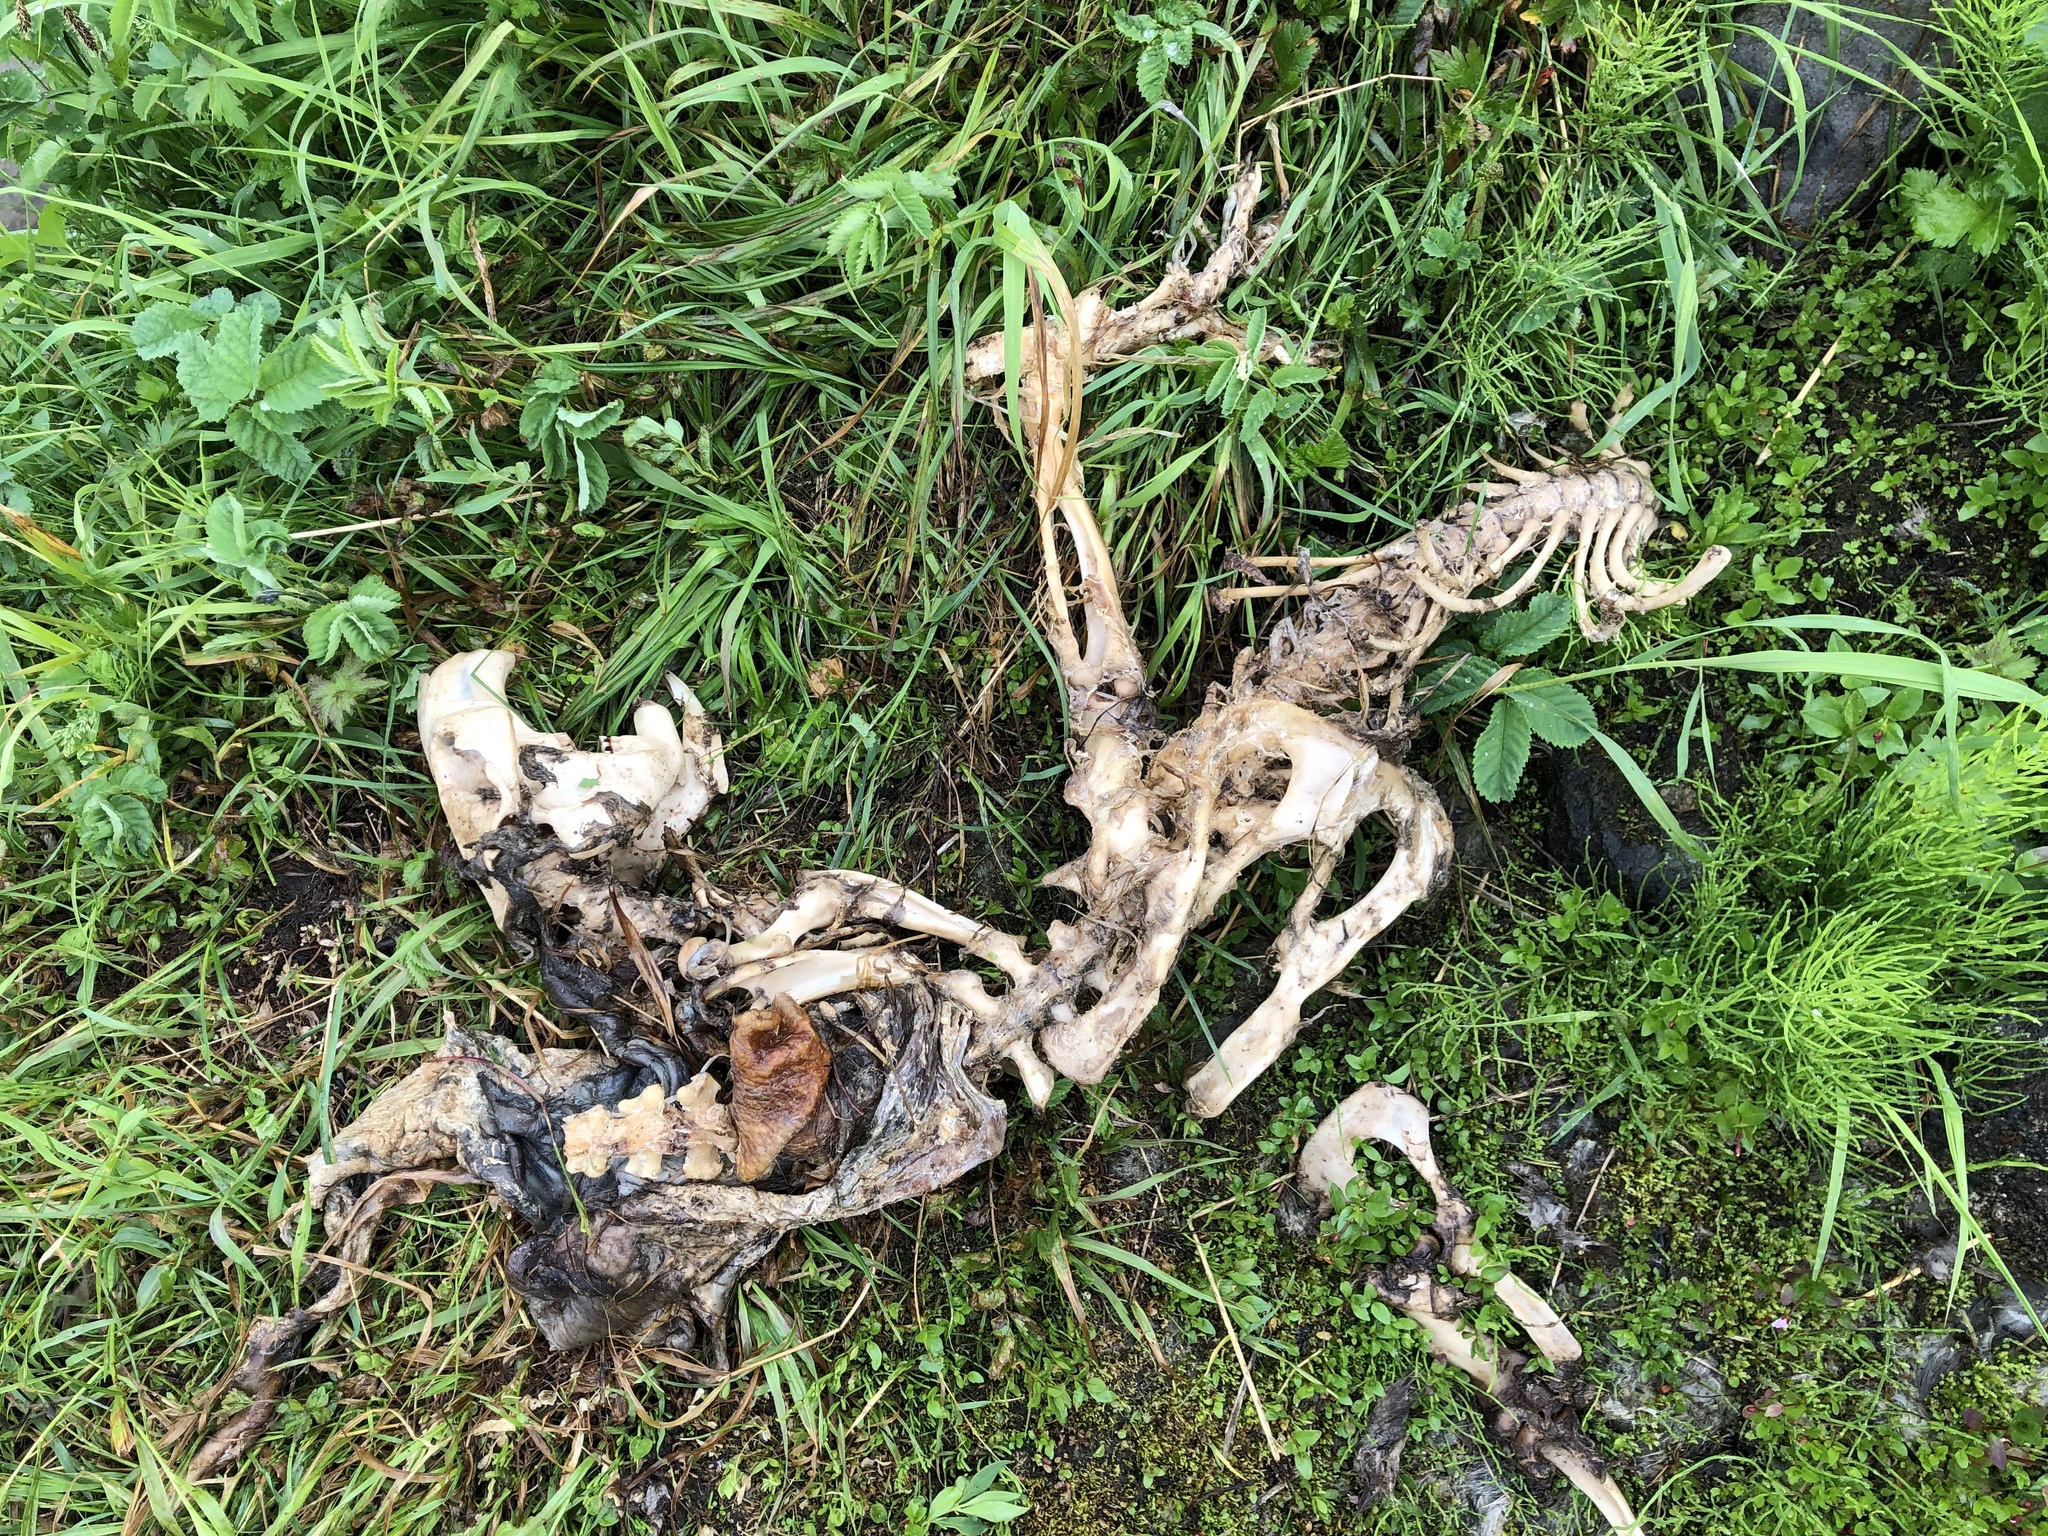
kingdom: Animalia
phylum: Chordata
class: Mammalia
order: Rodentia
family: Castoridae
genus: Castor
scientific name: Castor canadensis
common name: American beaver
